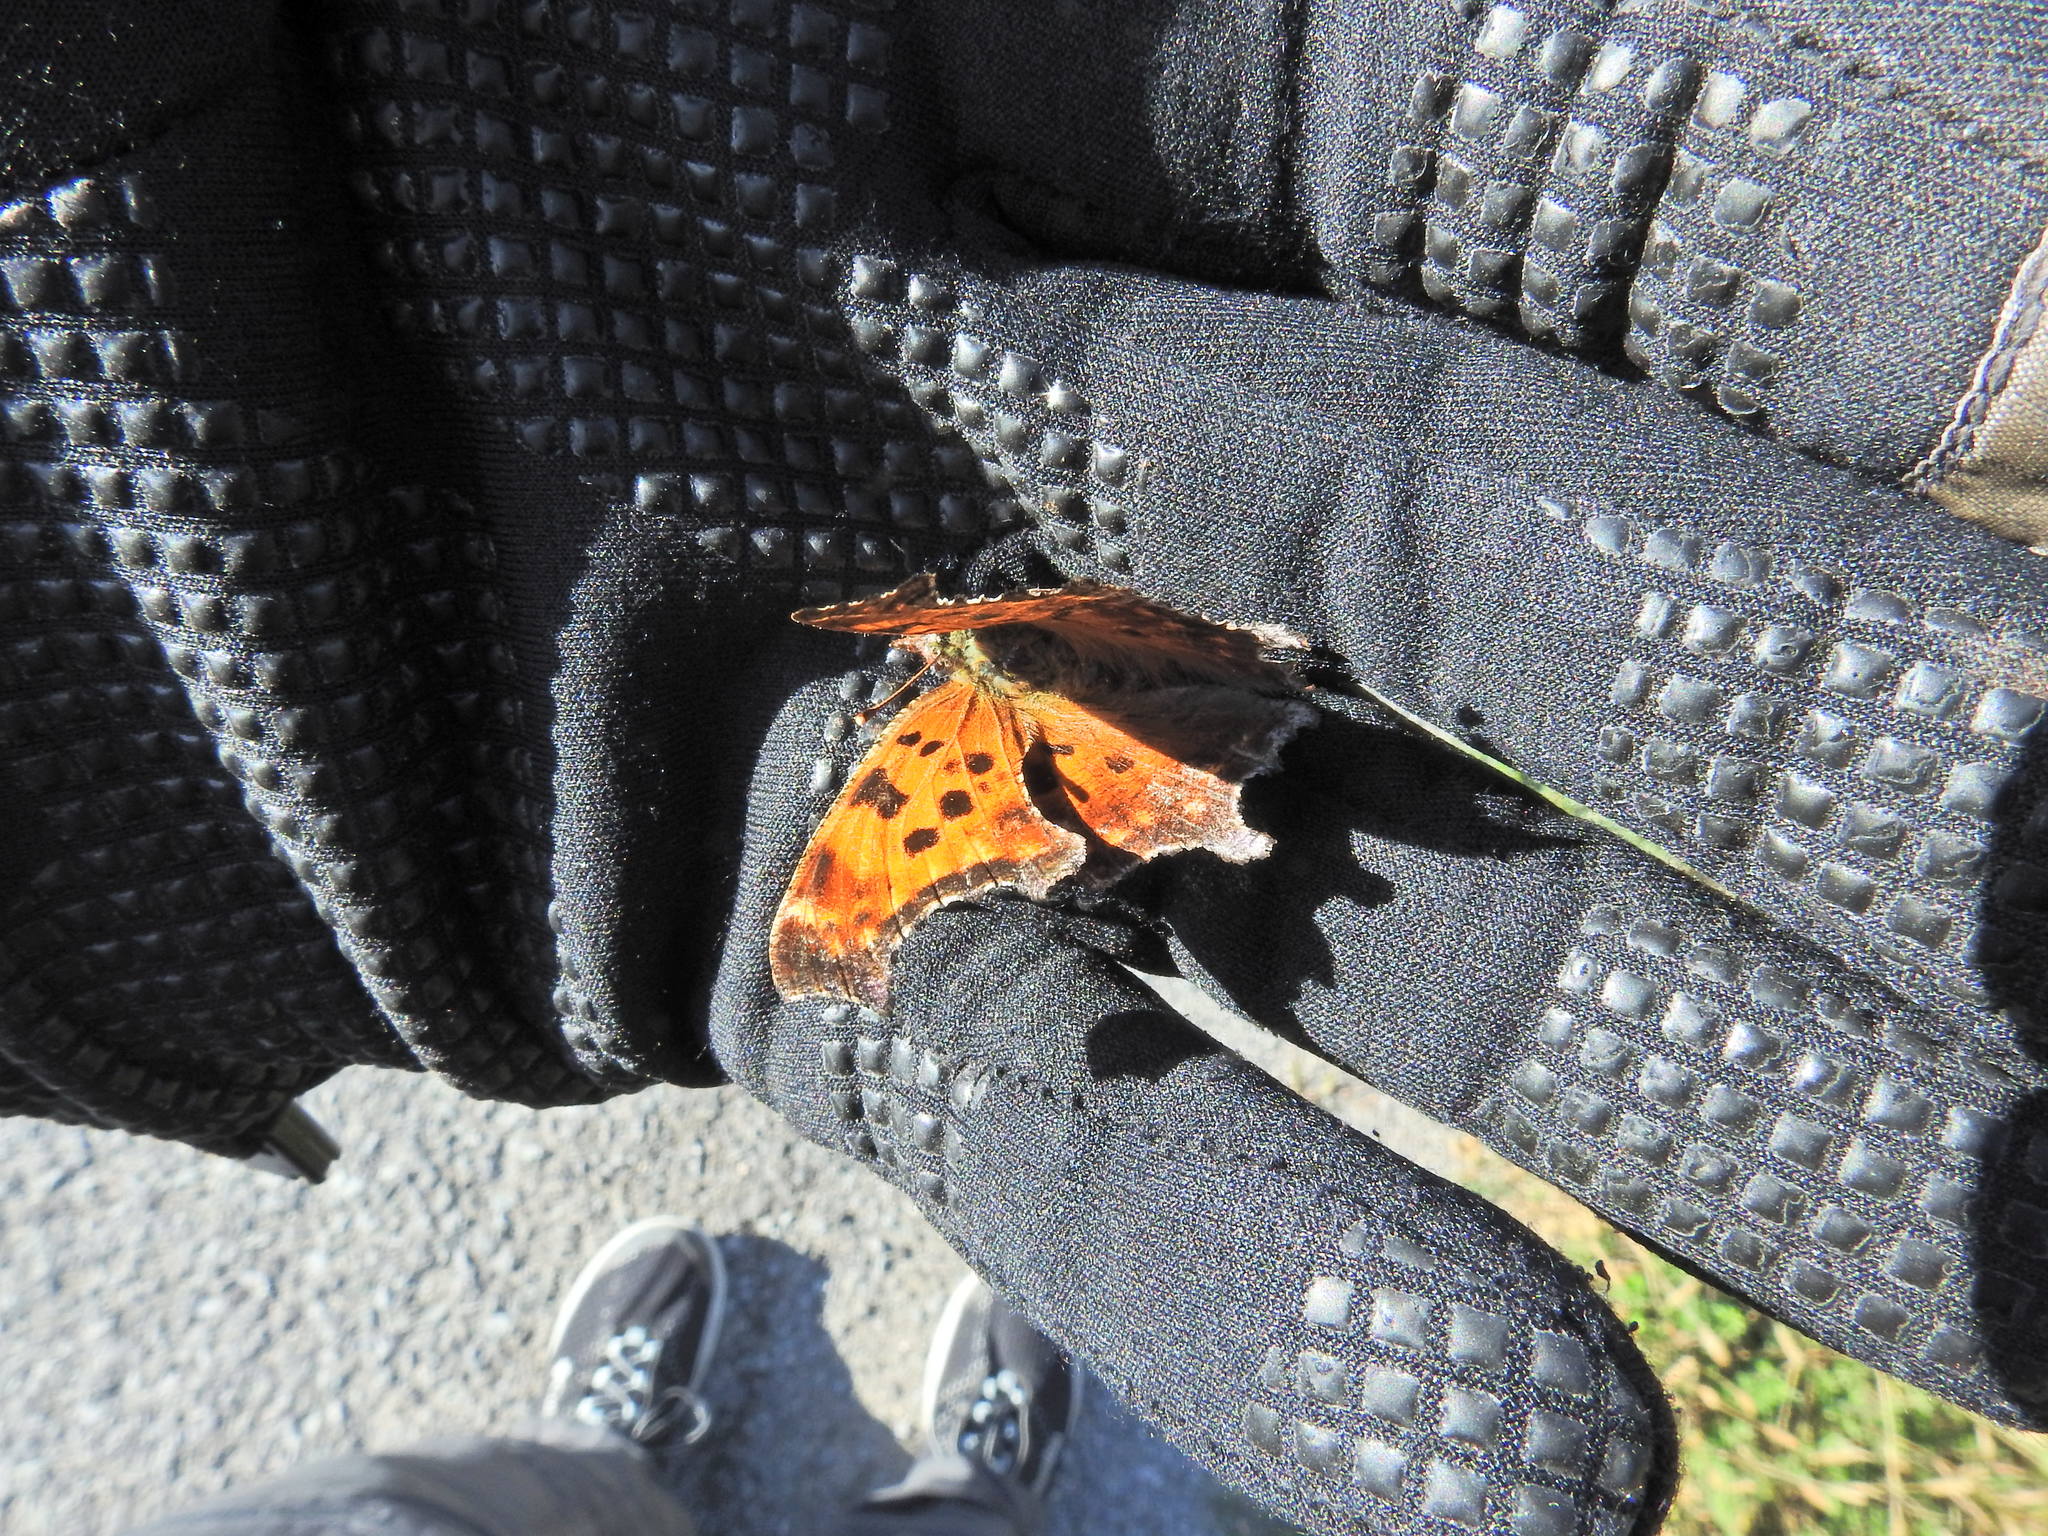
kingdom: Animalia
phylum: Arthropoda
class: Insecta
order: Lepidoptera
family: Nymphalidae
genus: Polygonia
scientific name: Polygonia comma
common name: Eastern comma
